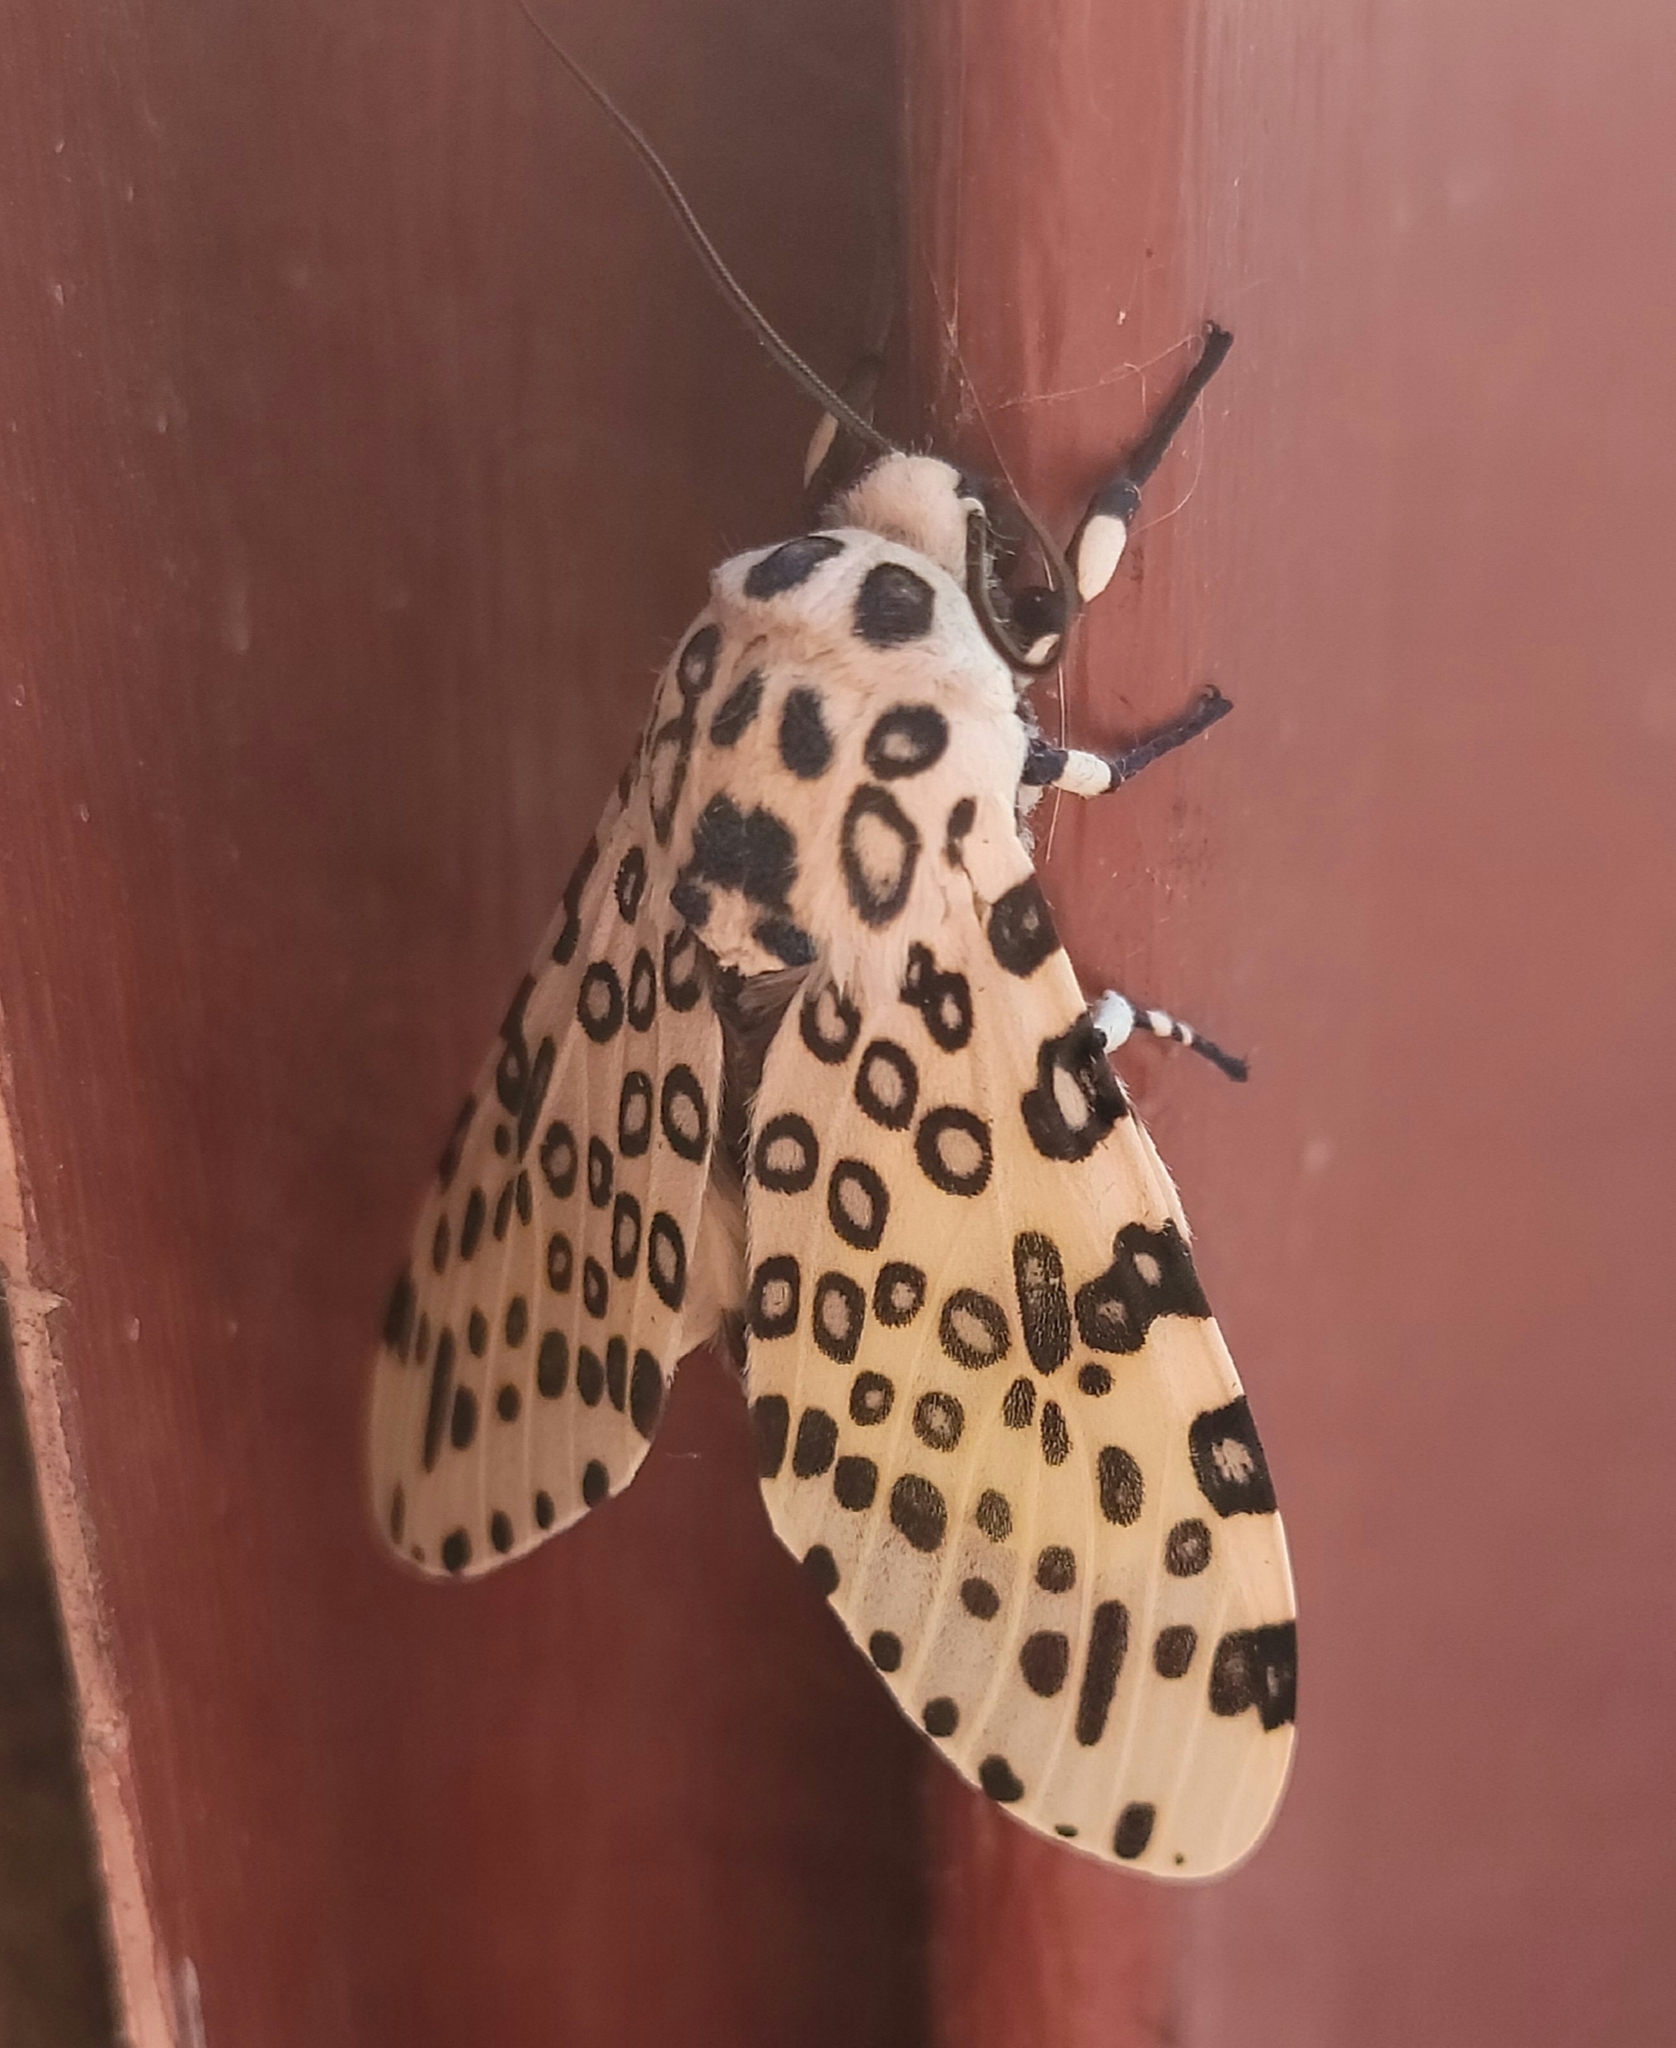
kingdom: Animalia
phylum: Arthropoda
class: Insecta
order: Lepidoptera
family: Erebidae
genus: Hypercompe
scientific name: Hypercompe scribonia
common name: Giant leopard moth
